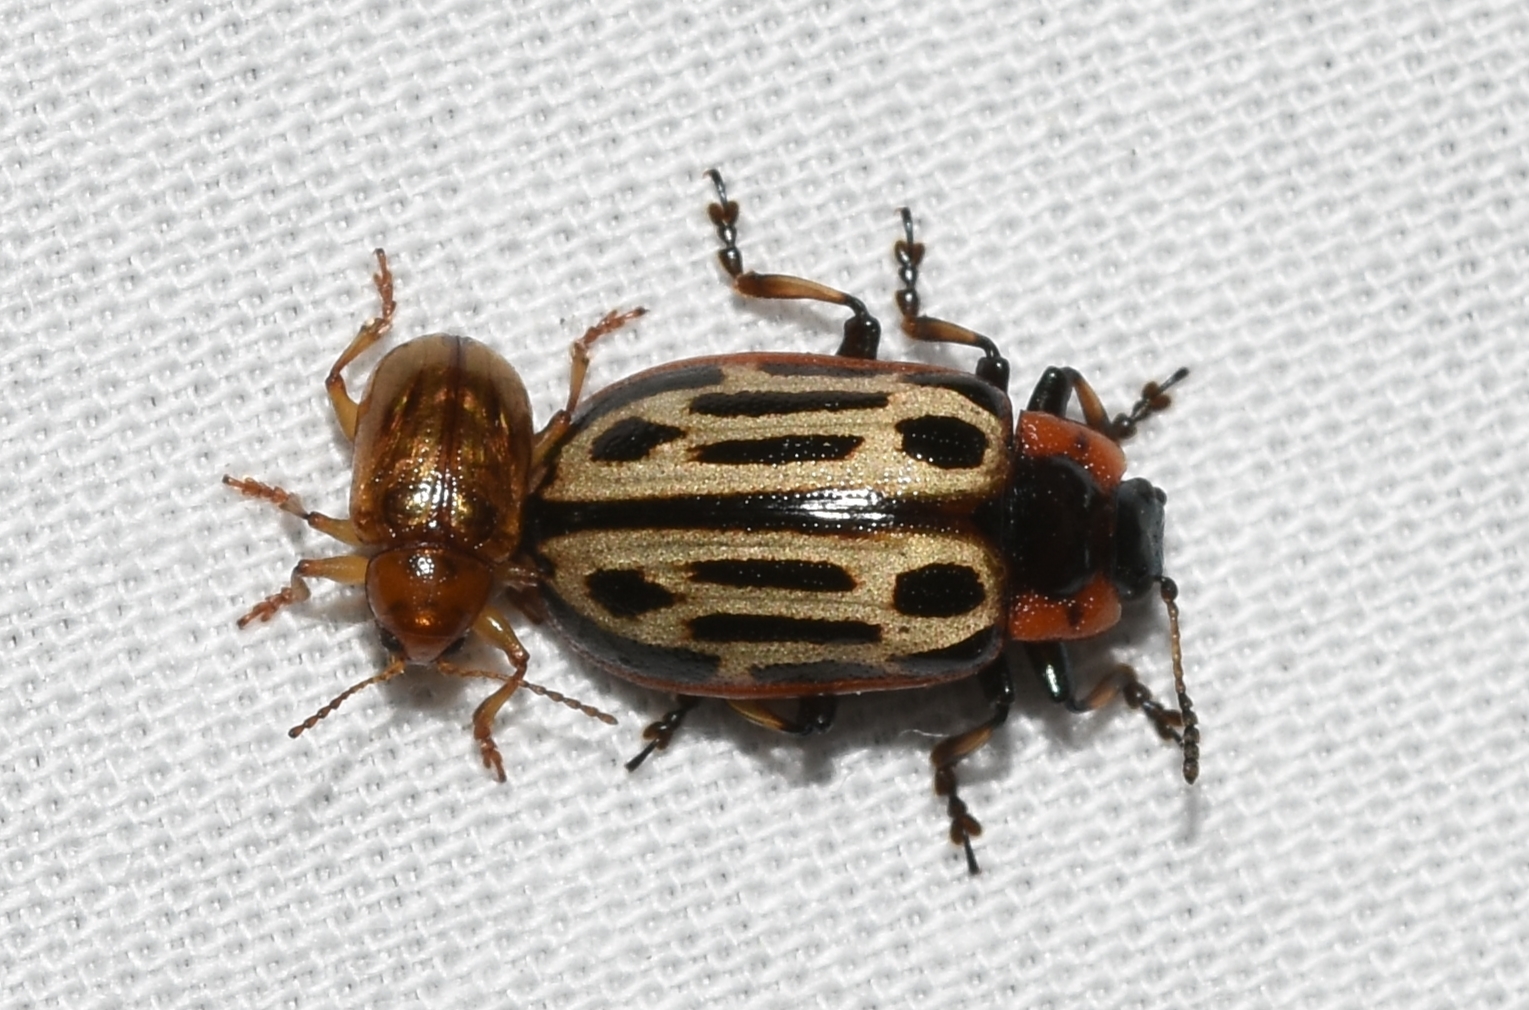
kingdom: Animalia
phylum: Arthropoda
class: Insecta
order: Coleoptera
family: Chrysomelidae
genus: Aethiopocassis
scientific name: Aethiopocassis scripta
